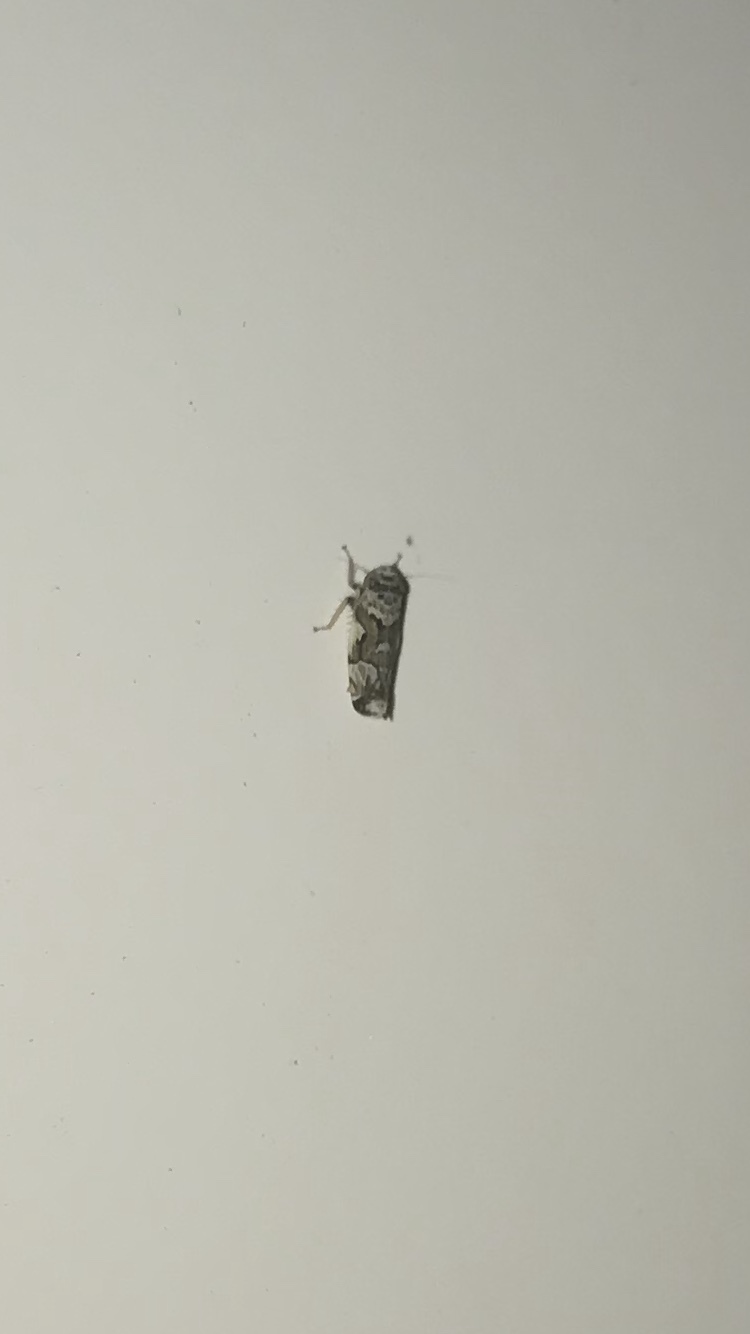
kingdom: Animalia
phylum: Arthropoda
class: Insecta
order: Hemiptera
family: Cicadellidae
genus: Sanctanus
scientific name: Sanctanus cruciatus
